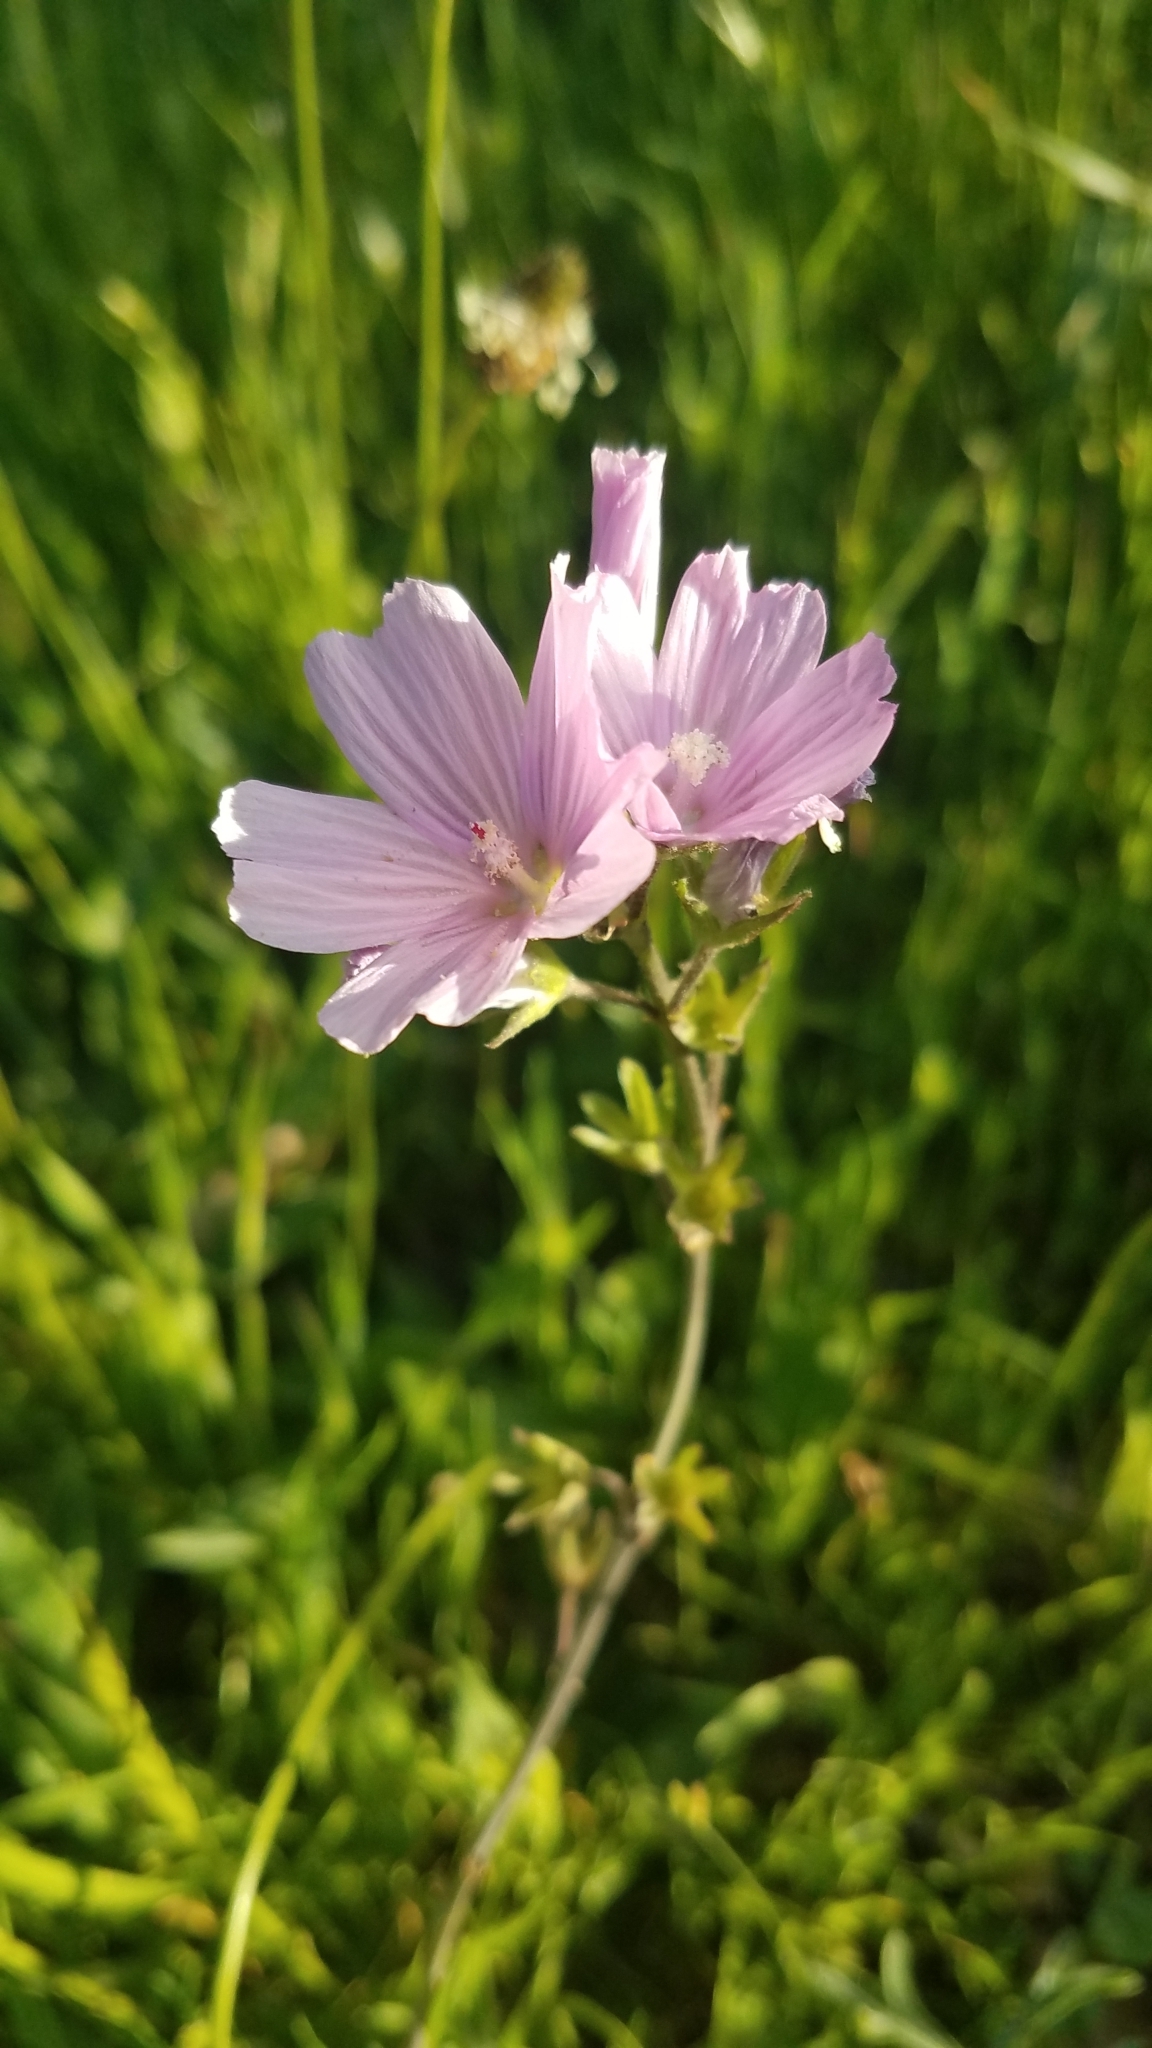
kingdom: Plantae
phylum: Tracheophyta
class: Magnoliopsida
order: Malvales
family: Malvaceae
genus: Sidalcea
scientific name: Sidalcea malviflora
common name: Greek mallow
